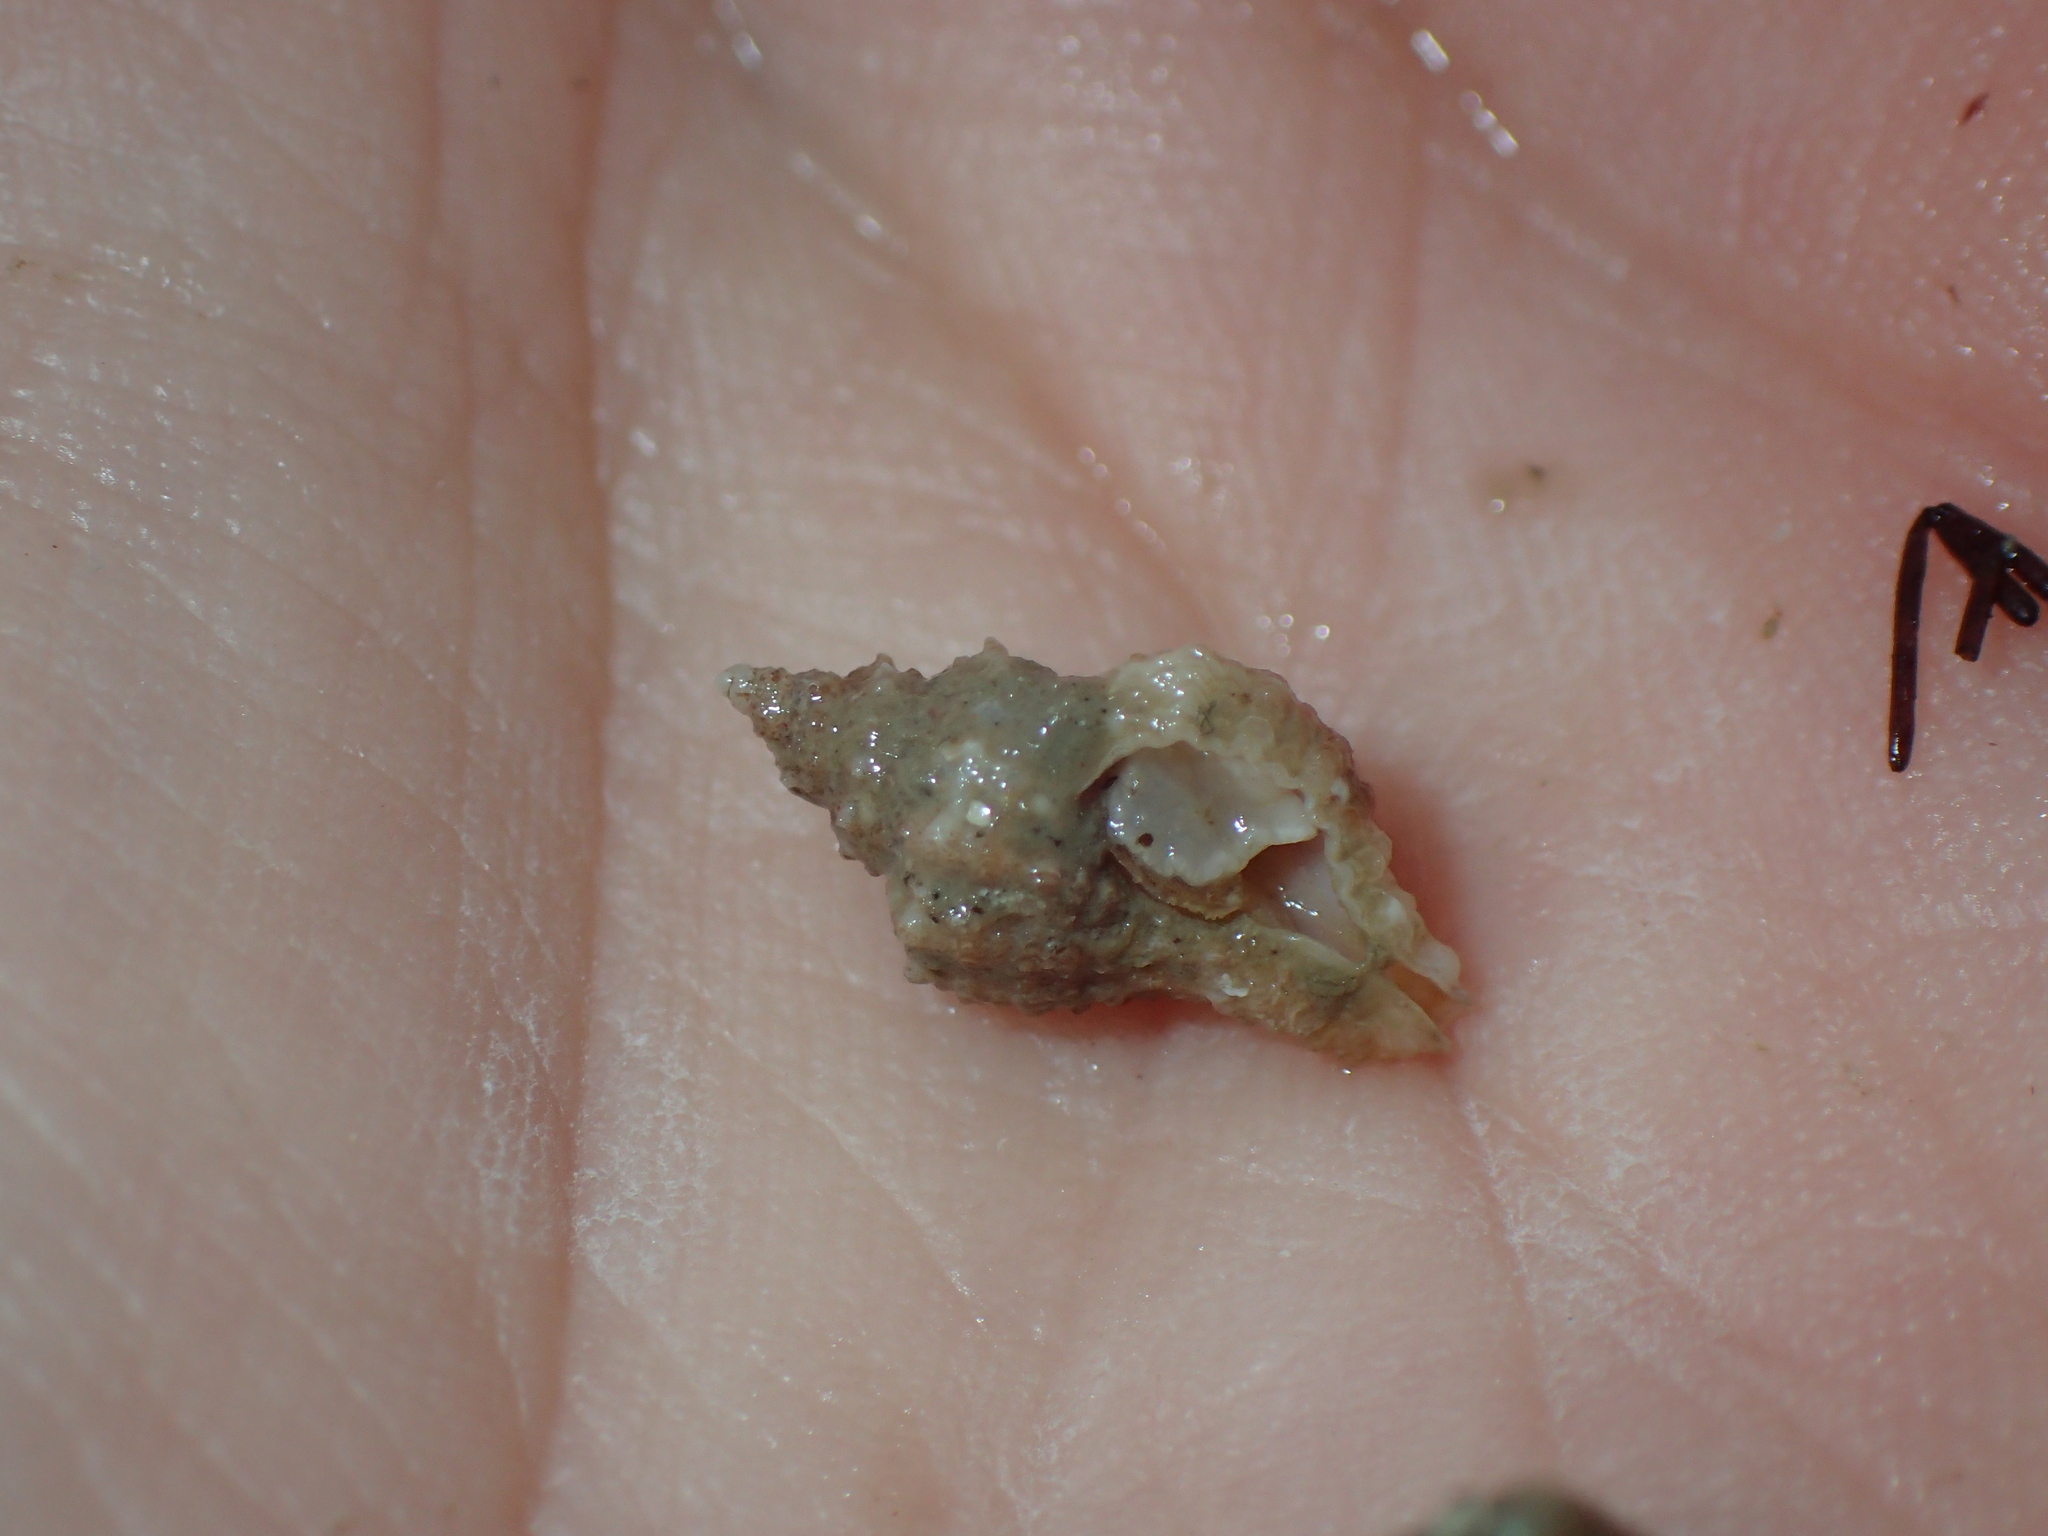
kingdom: Animalia
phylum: Mollusca
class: Gastropoda
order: Neogastropoda
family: Muricidae
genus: Ocenebra
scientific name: Ocenebra erinaceus
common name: European sting winkle
